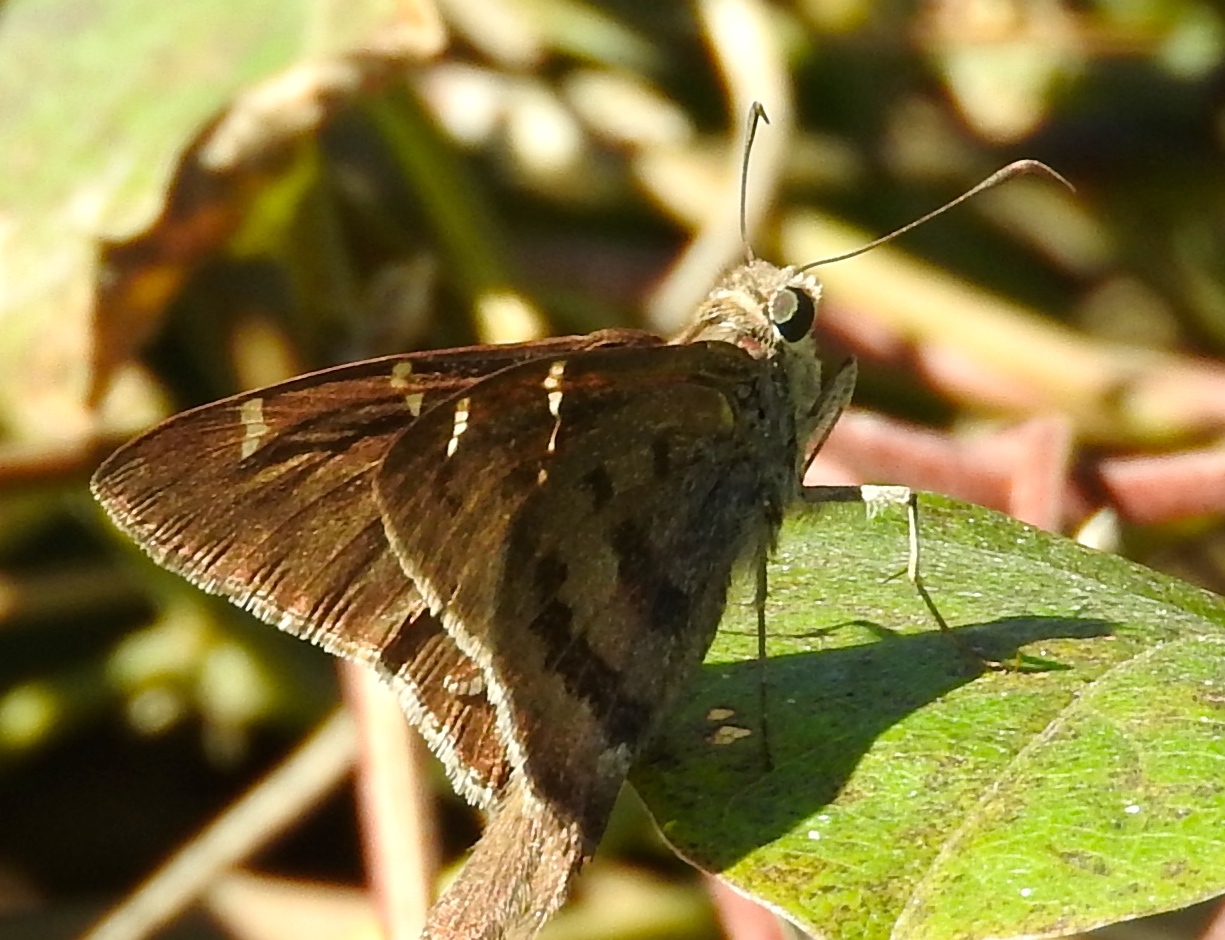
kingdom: Animalia
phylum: Arthropoda
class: Insecta
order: Lepidoptera
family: Hesperiidae
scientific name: Hesperiidae
